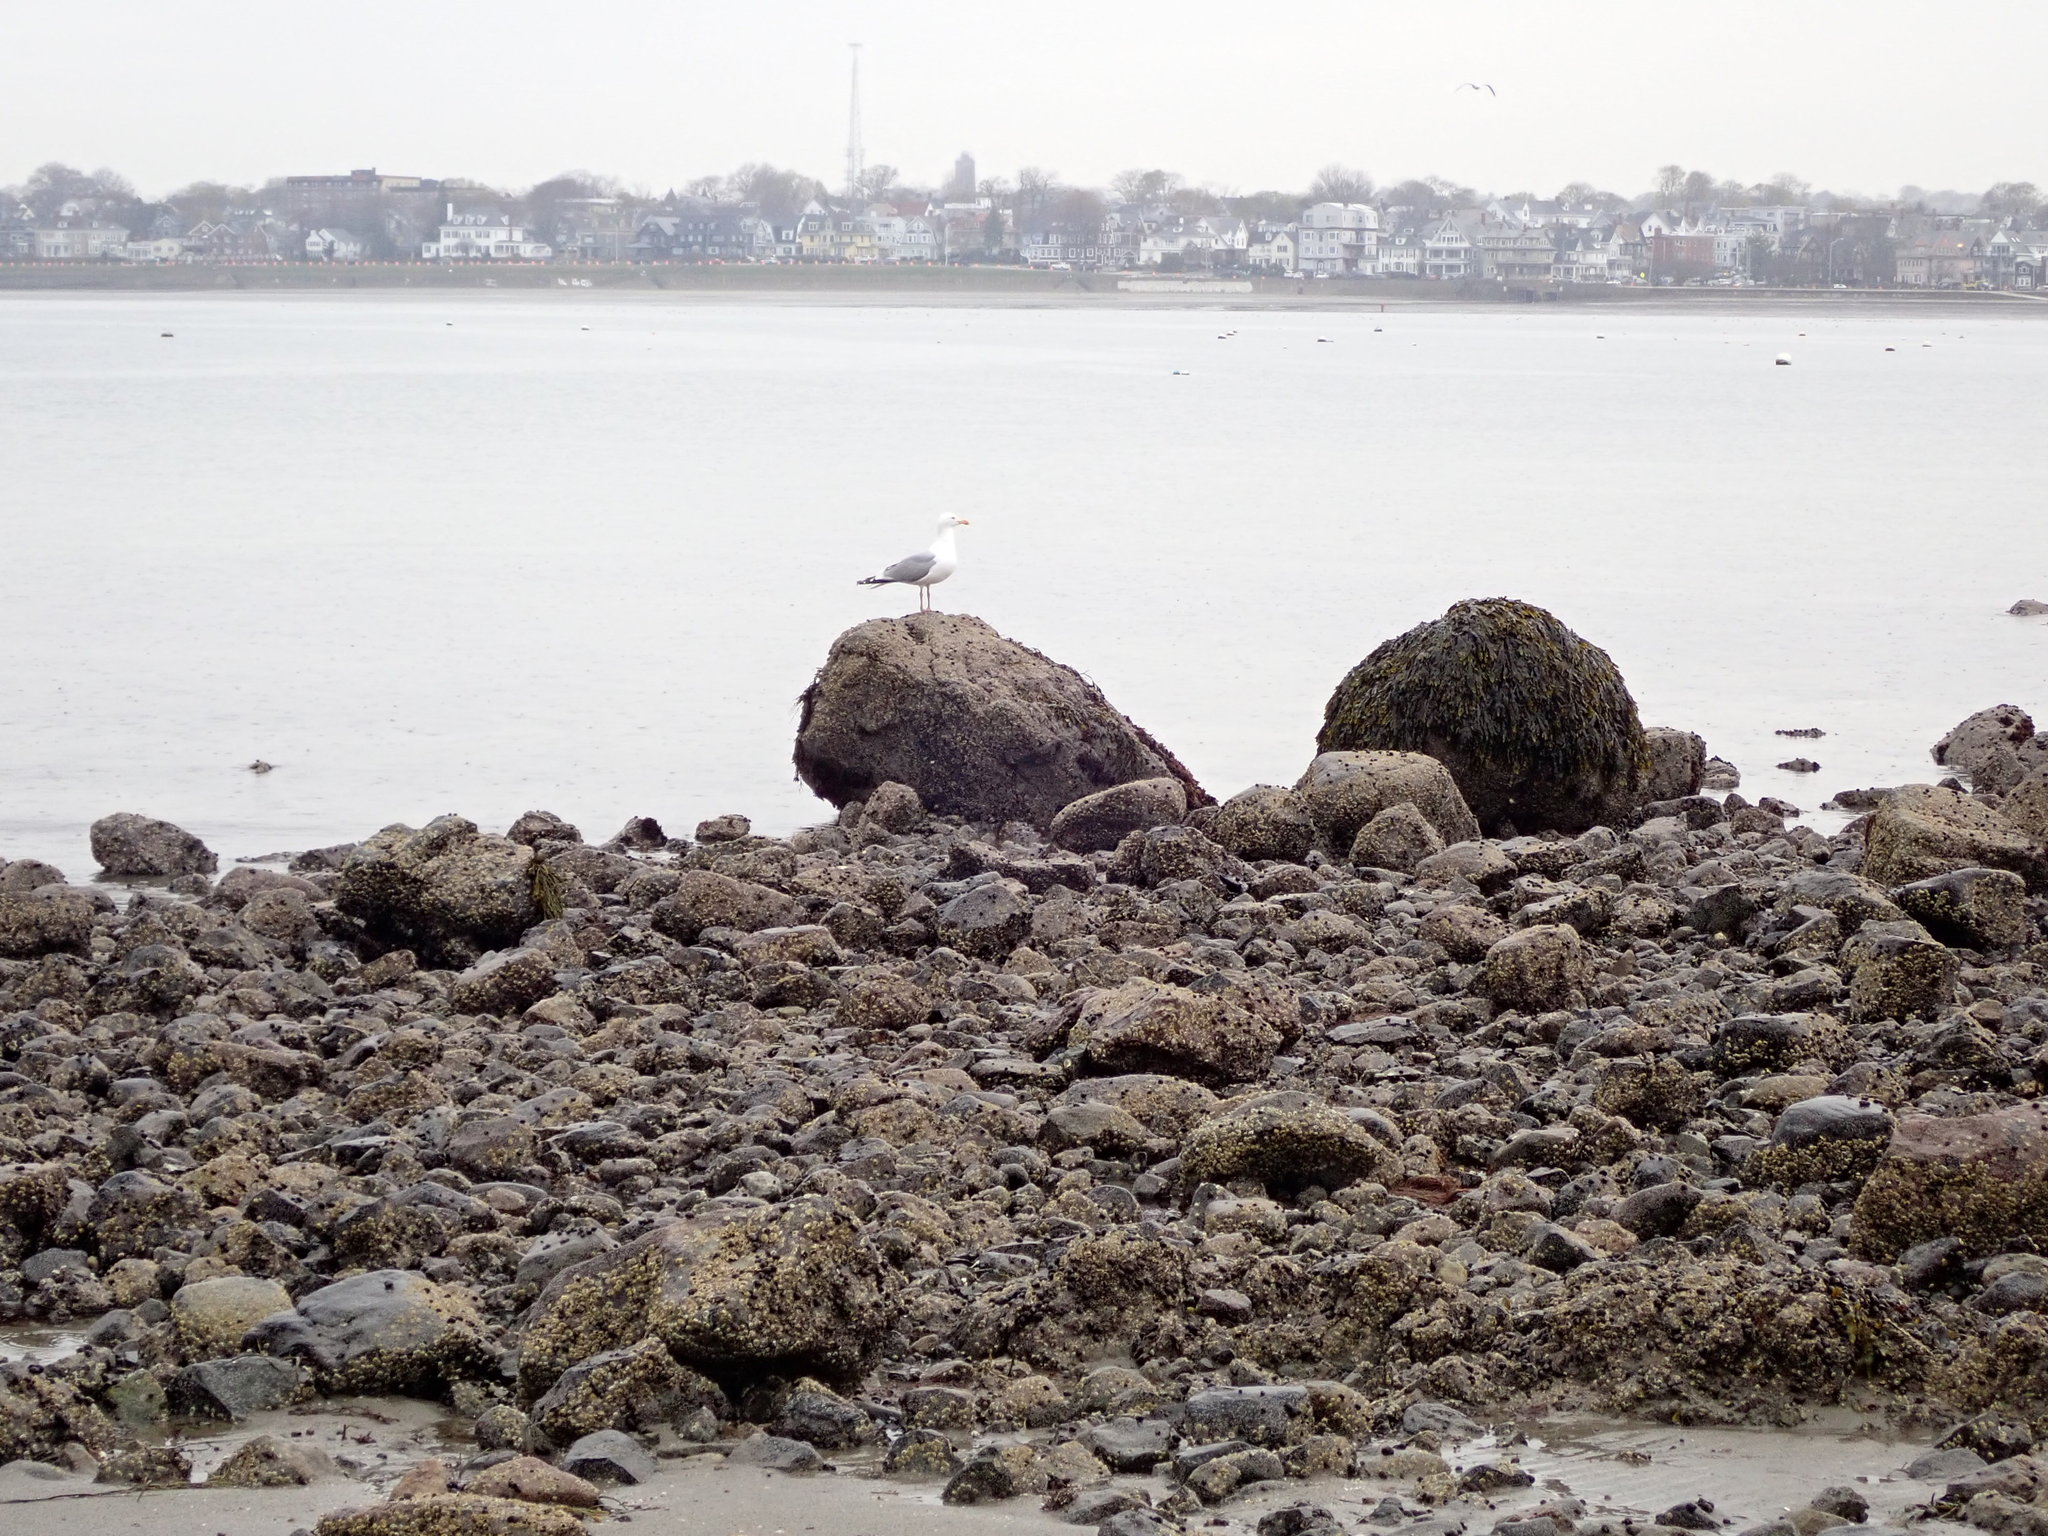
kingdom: Animalia
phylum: Chordata
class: Aves
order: Charadriiformes
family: Laridae
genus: Larus
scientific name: Larus argentatus
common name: Herring gull
